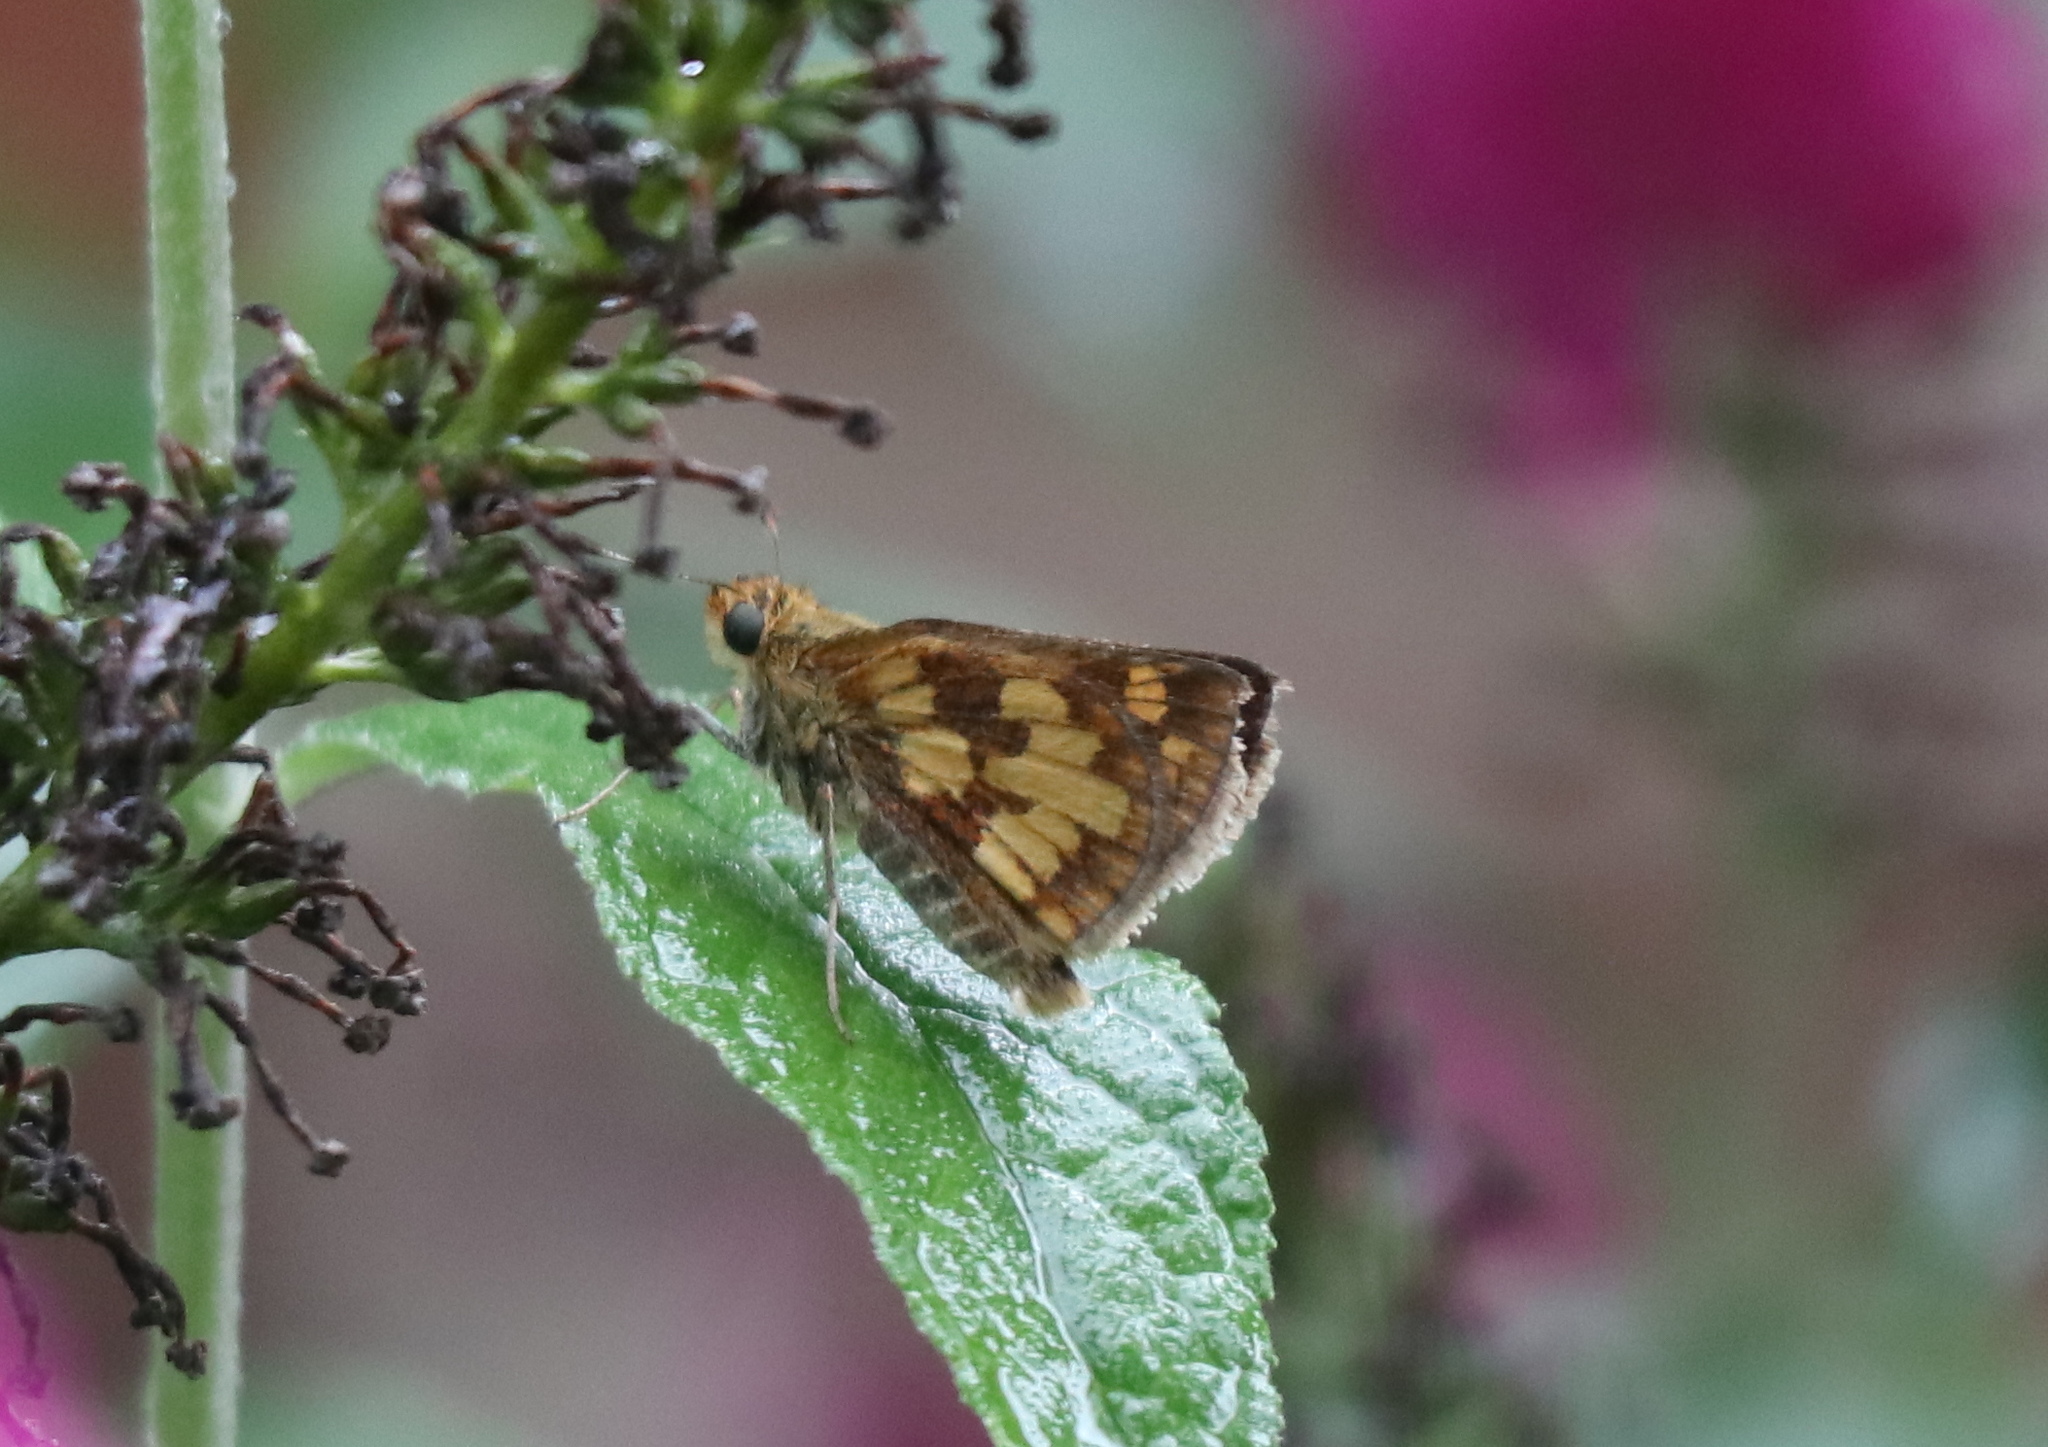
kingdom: Animalia
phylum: Arthropoda
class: Insecta
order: Lepidoptera
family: Hesperiidae
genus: Polites
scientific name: Polites coras
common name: Peck's skipper
